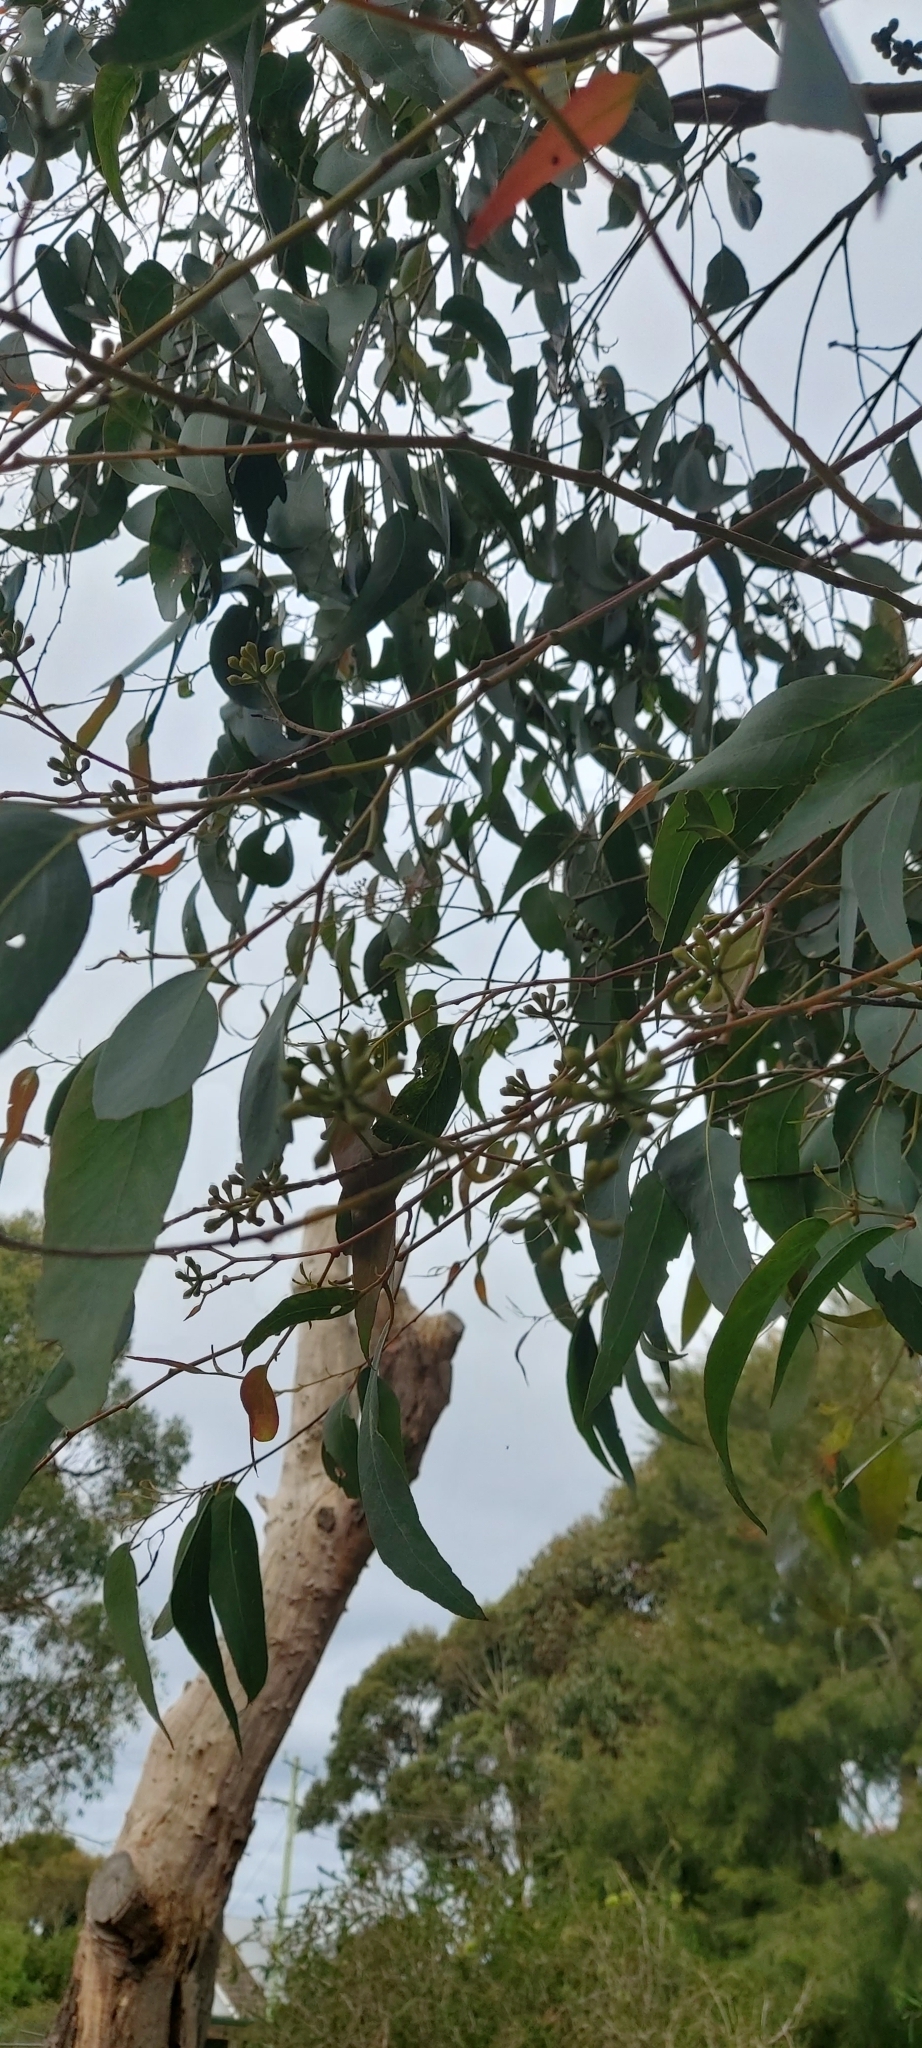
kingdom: Plantae
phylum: Tracheophyta
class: Magnoliopsida
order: Myrtales
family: Myrtaceae
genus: Eucalyptus
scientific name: Eucalyptus obliqua
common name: Messmate stringybark
